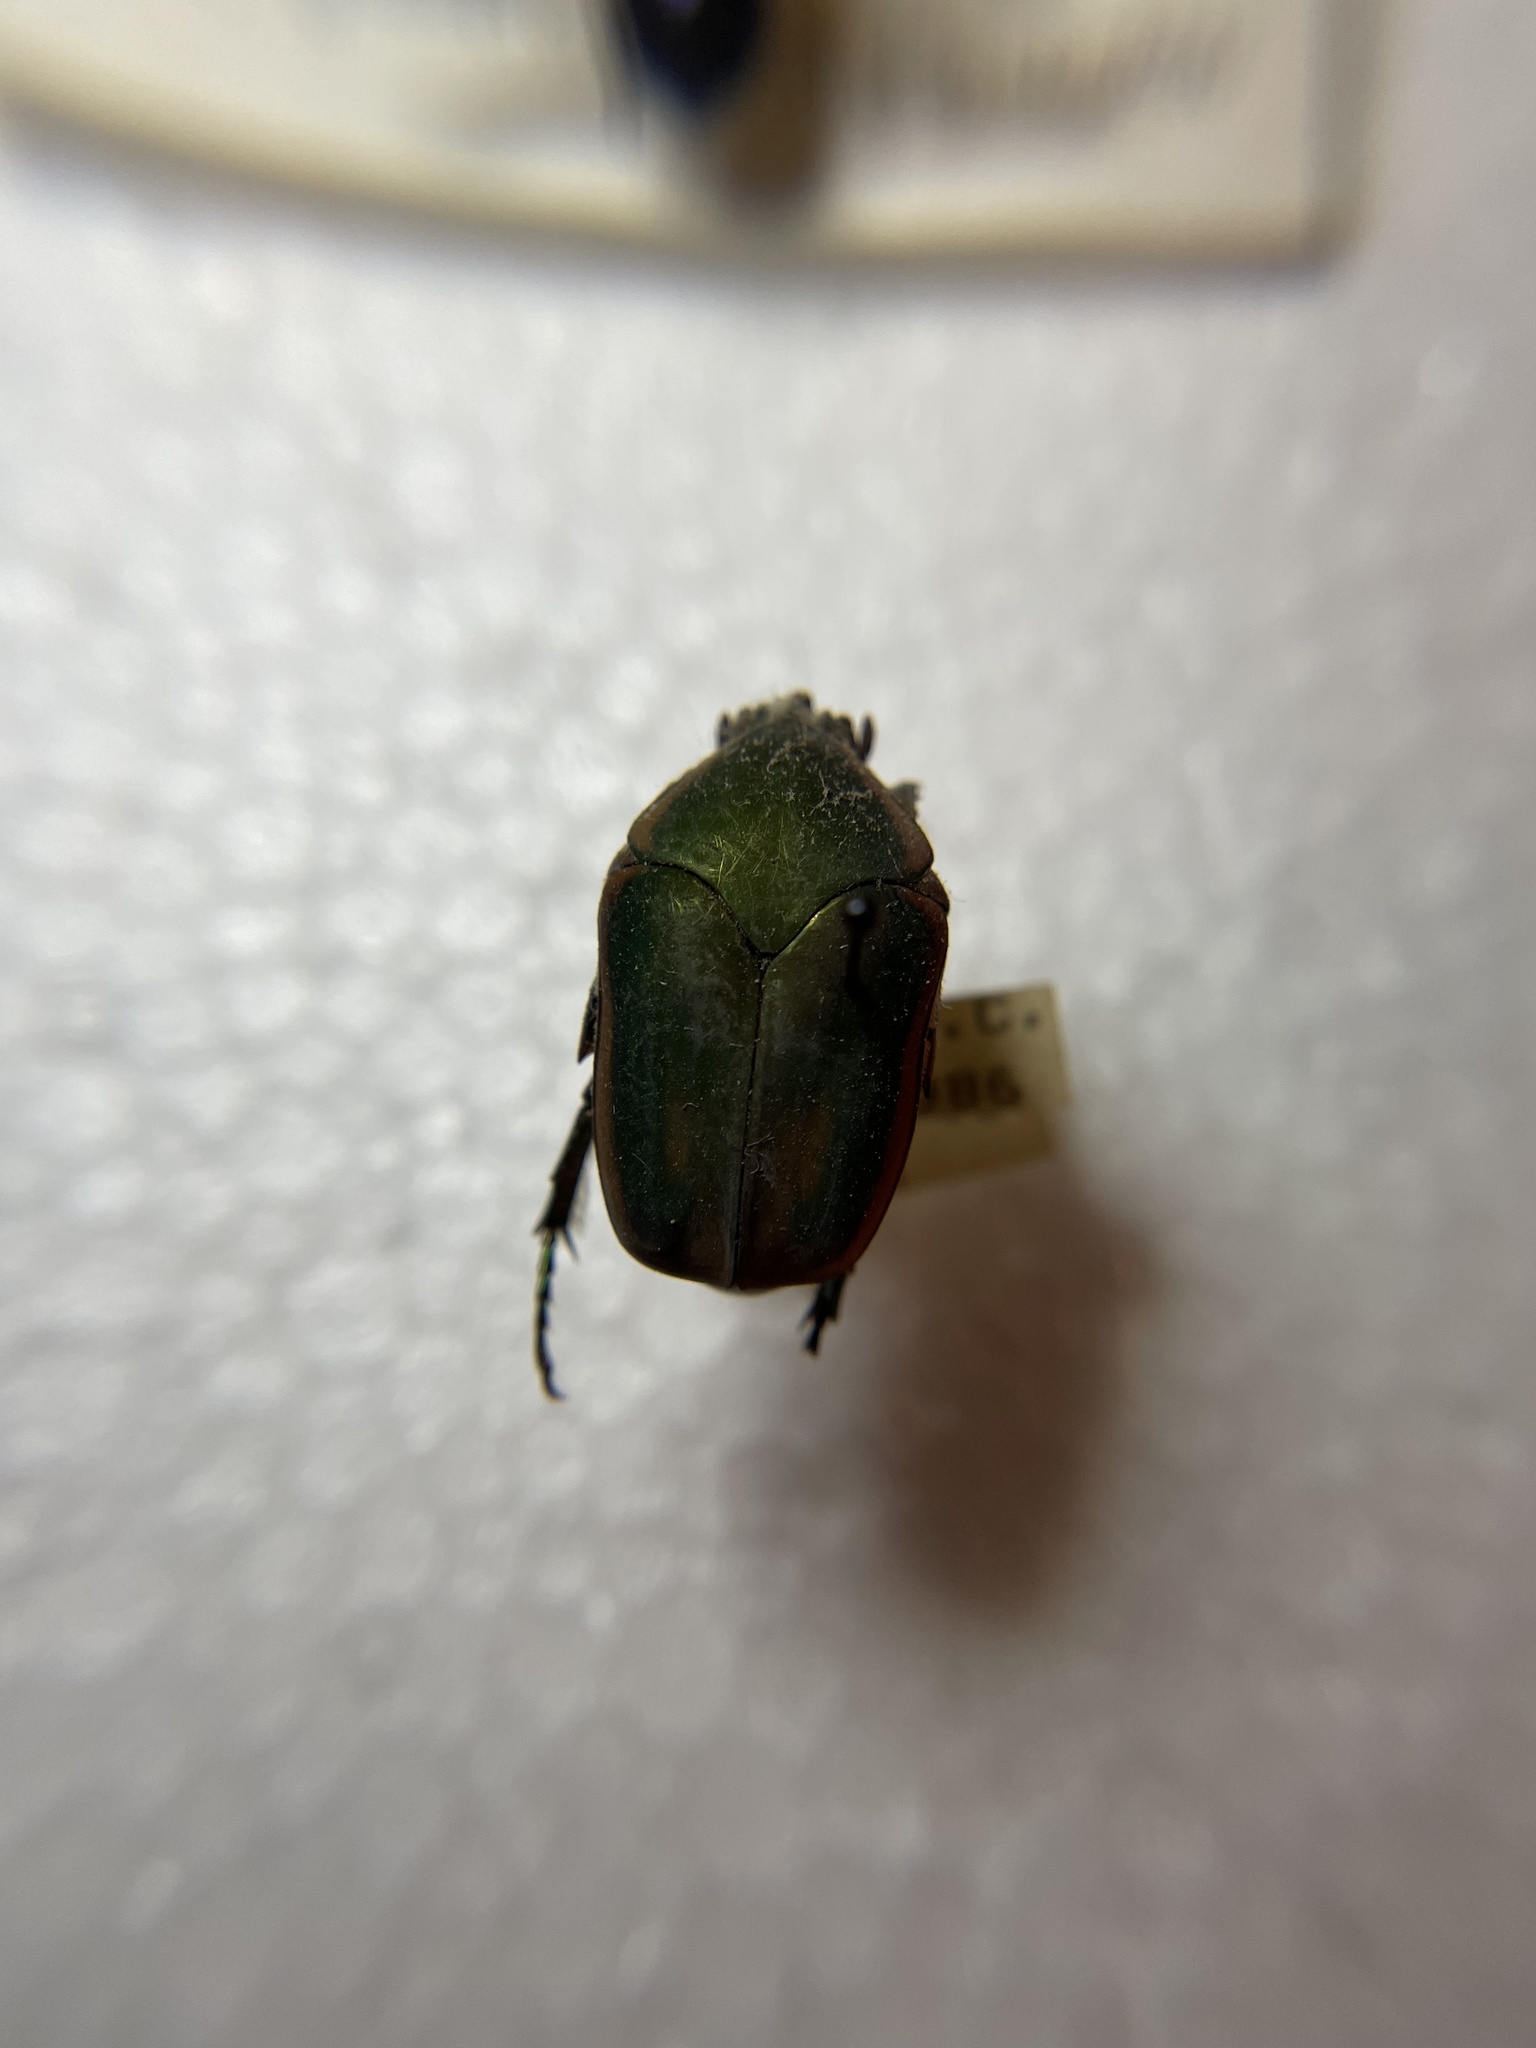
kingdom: Animalia
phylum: Arthropoda
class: Insecta
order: Coleoptera
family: Scarabaeidae
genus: Cotinis
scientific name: Cotinis nitida
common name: Common green june beetle
